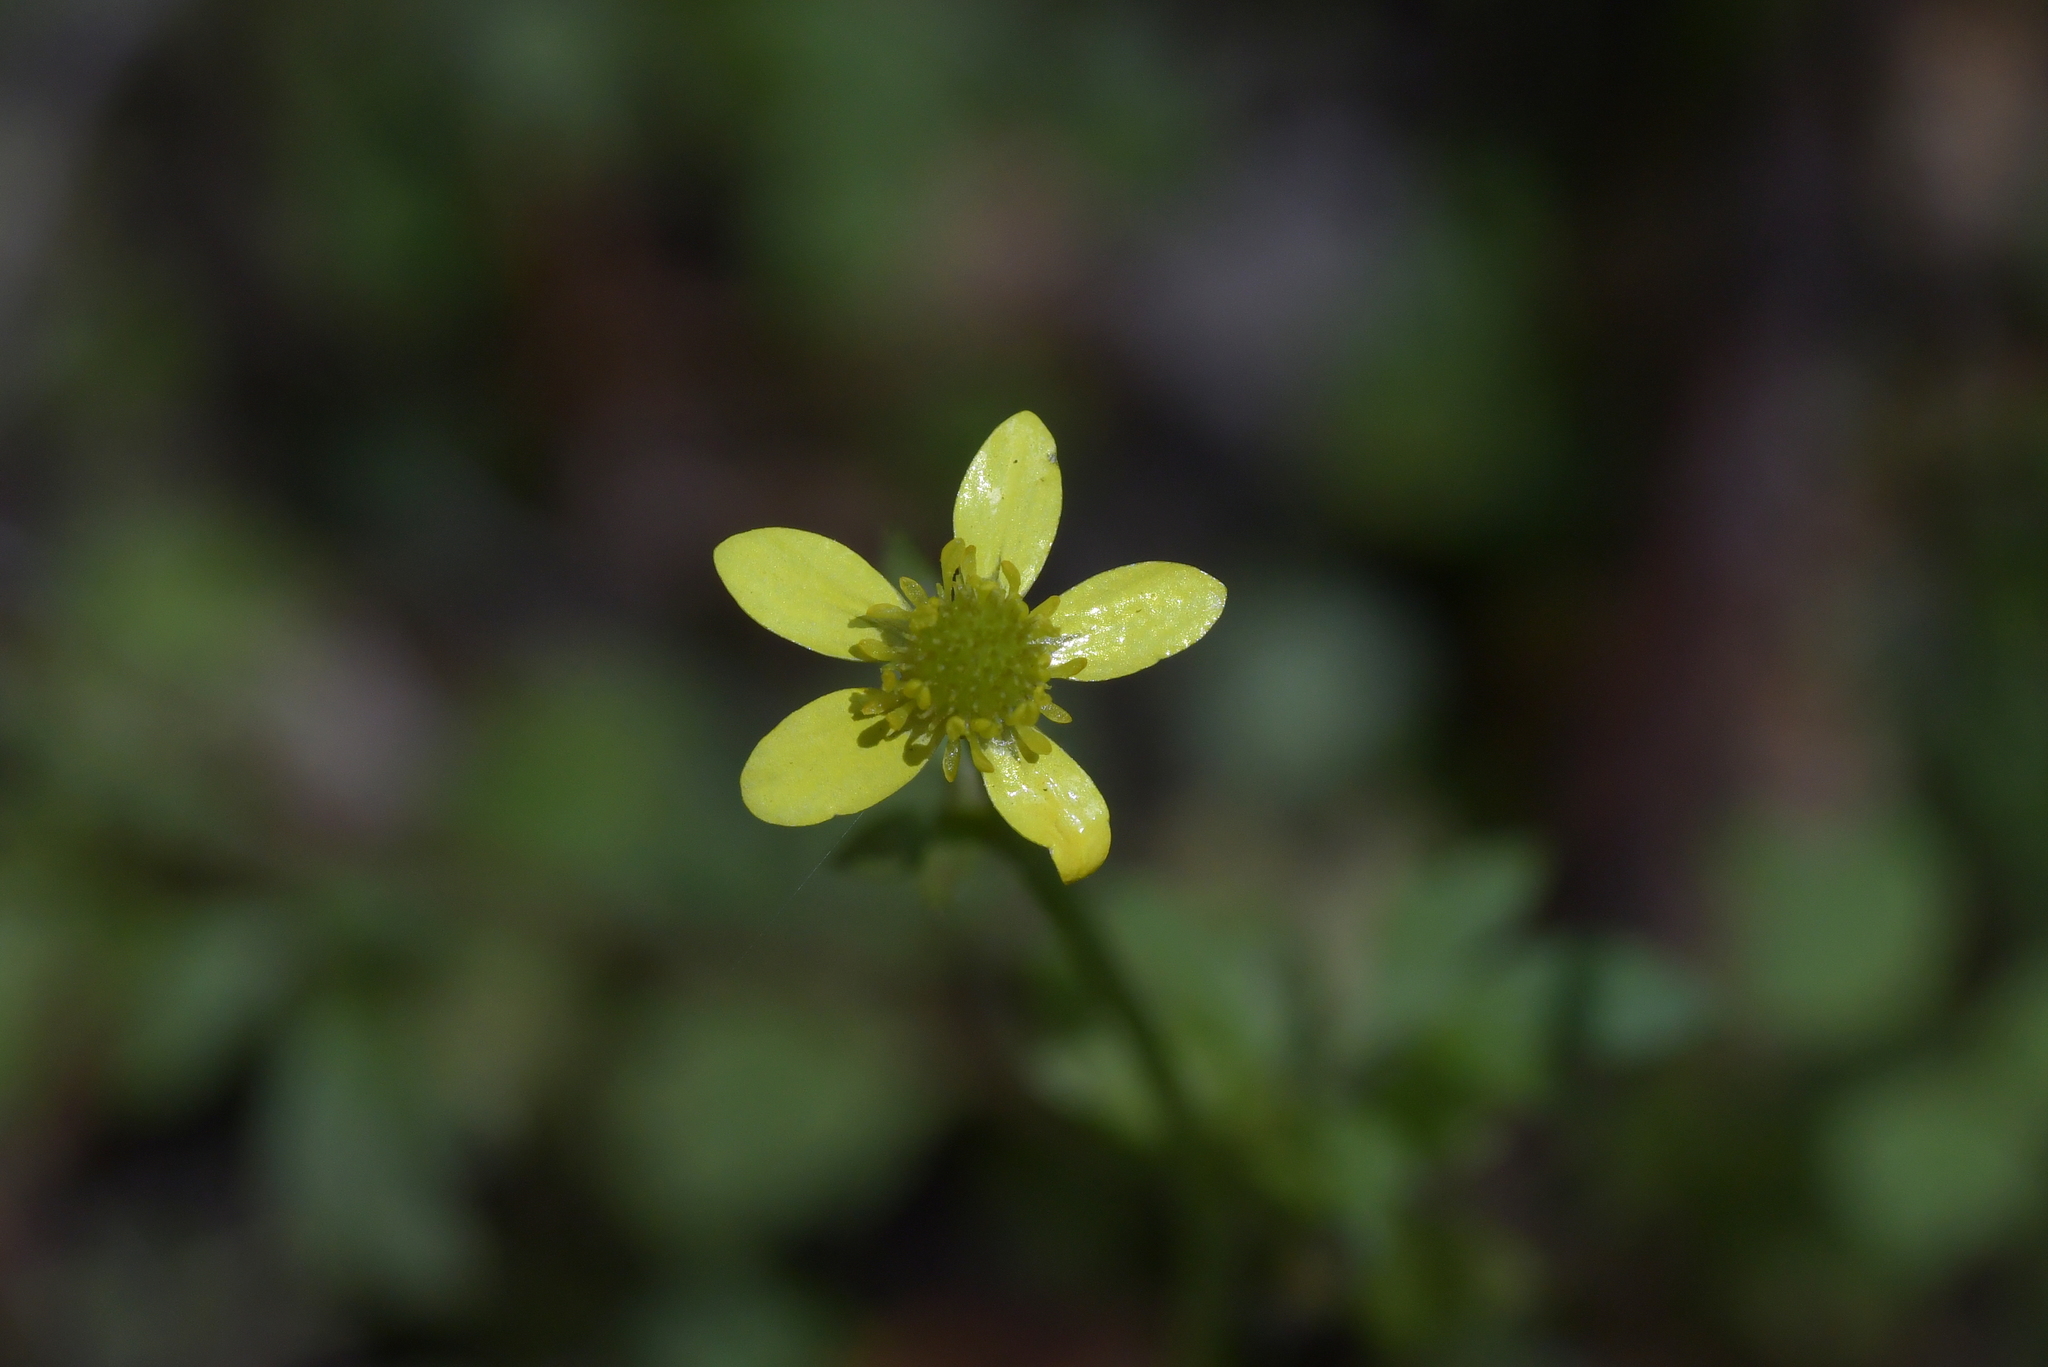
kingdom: Plantae
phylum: Tracheophyta
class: Magnoliopsida
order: Ranunculales
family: Ranunculaceae
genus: Ranunculus
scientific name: Ranunculus reflexus
